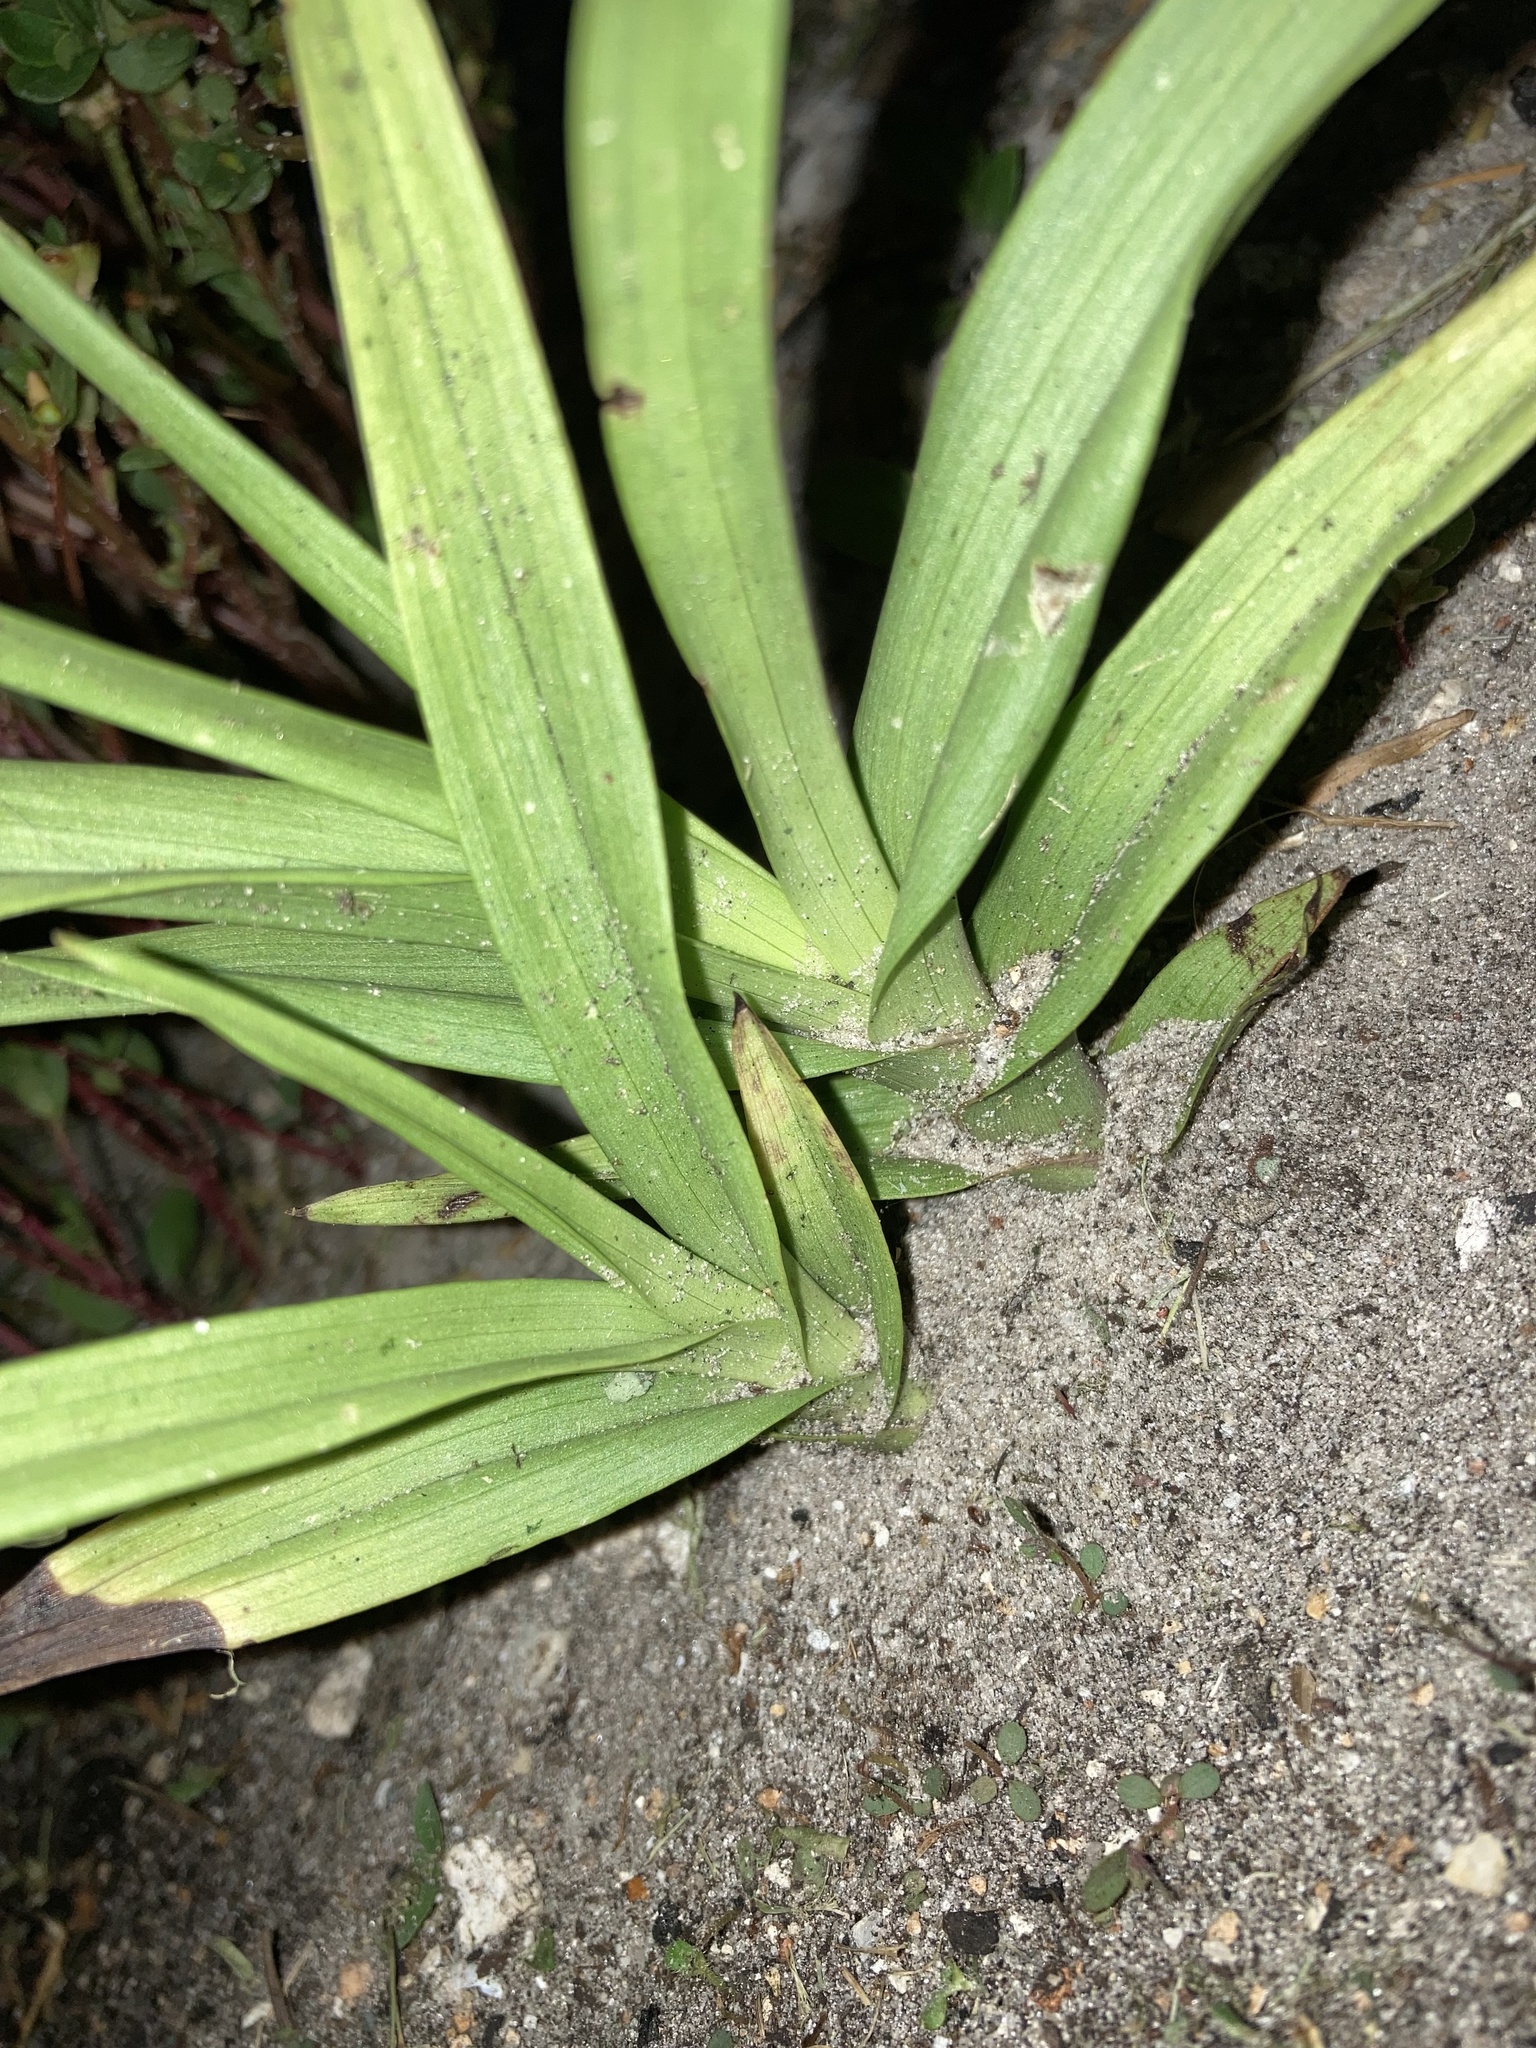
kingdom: Plantae
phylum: Tracheophyta
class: Liliopsida
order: Asparagales
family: Orchidaceae
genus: Eulophia
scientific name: Eulophia graminea
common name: Orchid
